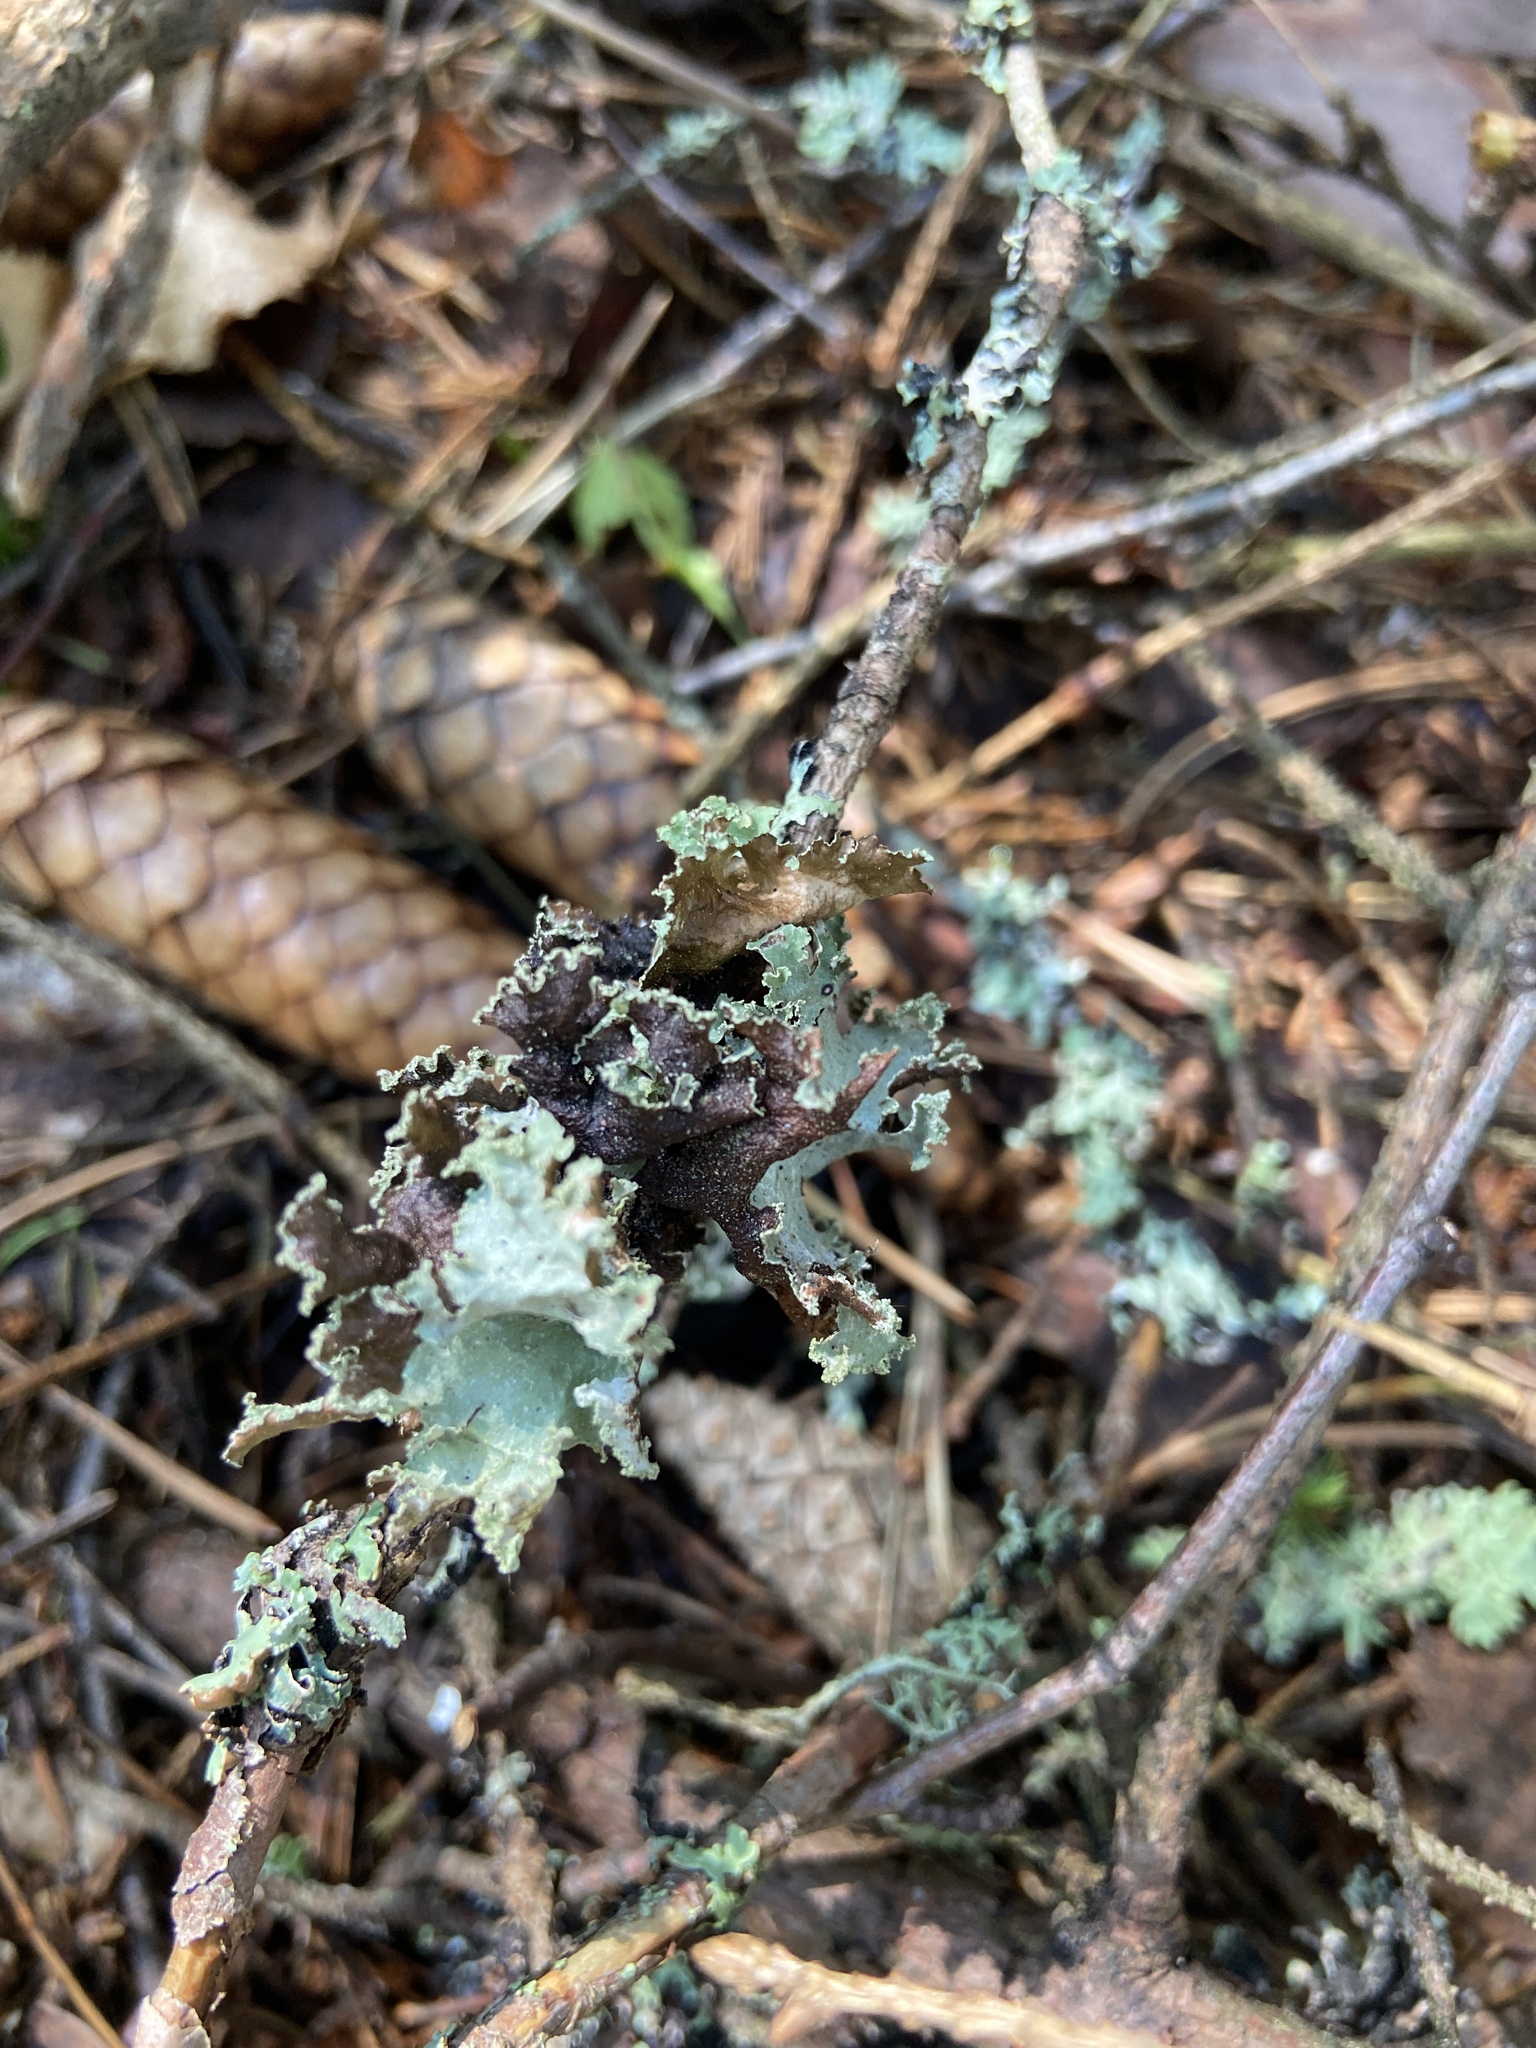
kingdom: Fungi
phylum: Ascomycota
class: Lecanoromycetes
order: Lecanorales
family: Parmeliaceae
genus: Platismatia
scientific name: Platismatia glauca
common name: Varied rag lichen
